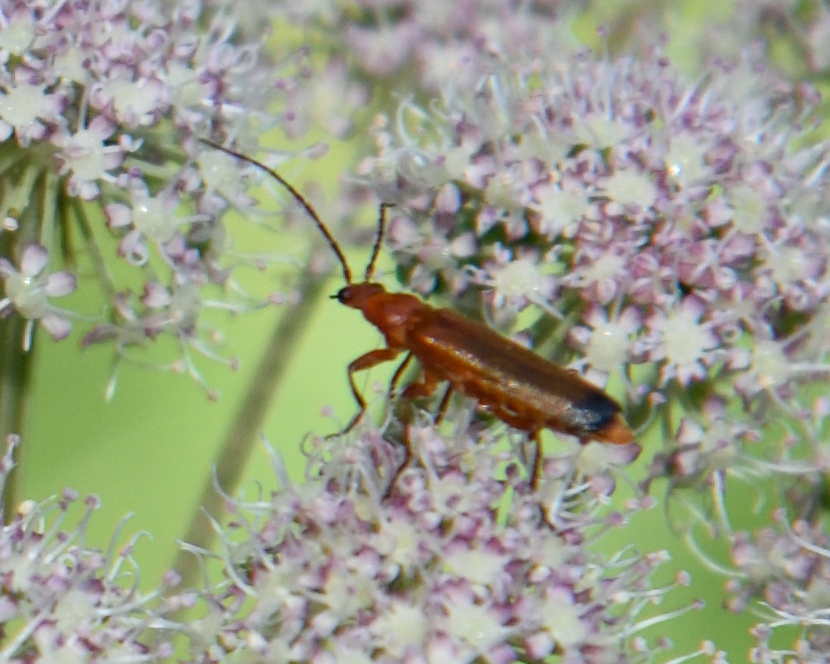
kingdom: Animalia
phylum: Arthropoda
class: Insecta
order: Coleoptera
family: Cantharidae
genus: Rhagonycha
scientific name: Rhagonycha fulva
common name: Common red soldier beetle
